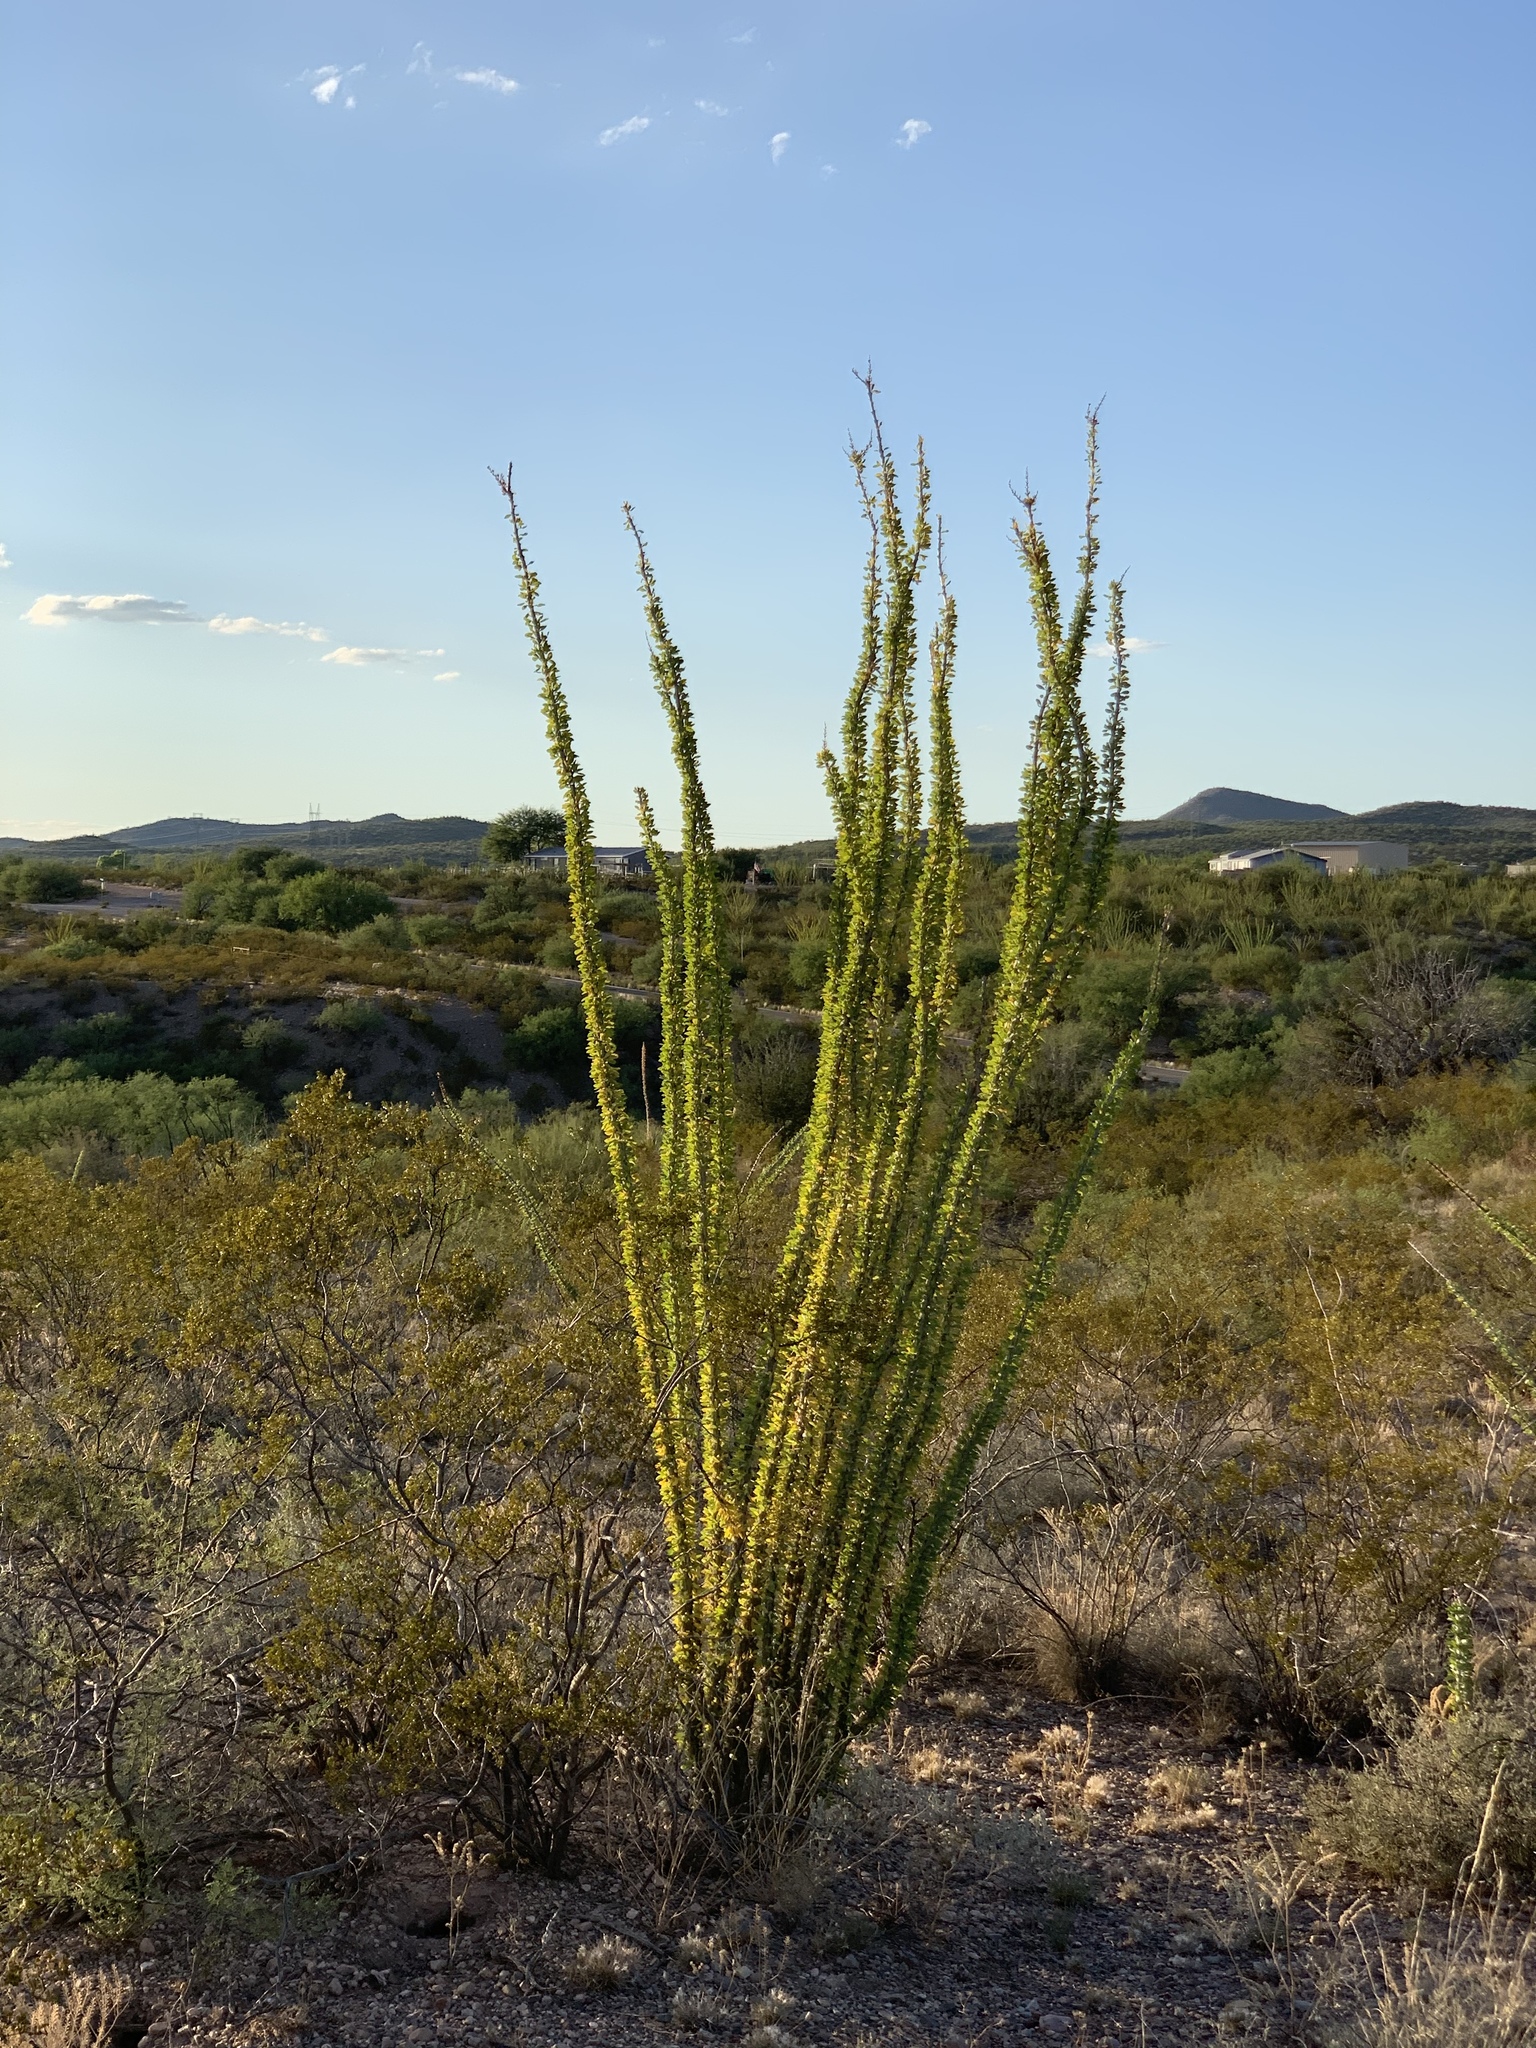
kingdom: Plantae
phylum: Tracheophyta
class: Magnoliopsida
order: Ericales
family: Fouquieriaceae
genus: Fouquieria
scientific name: Fouquieria splendens
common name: Vine-cactus
